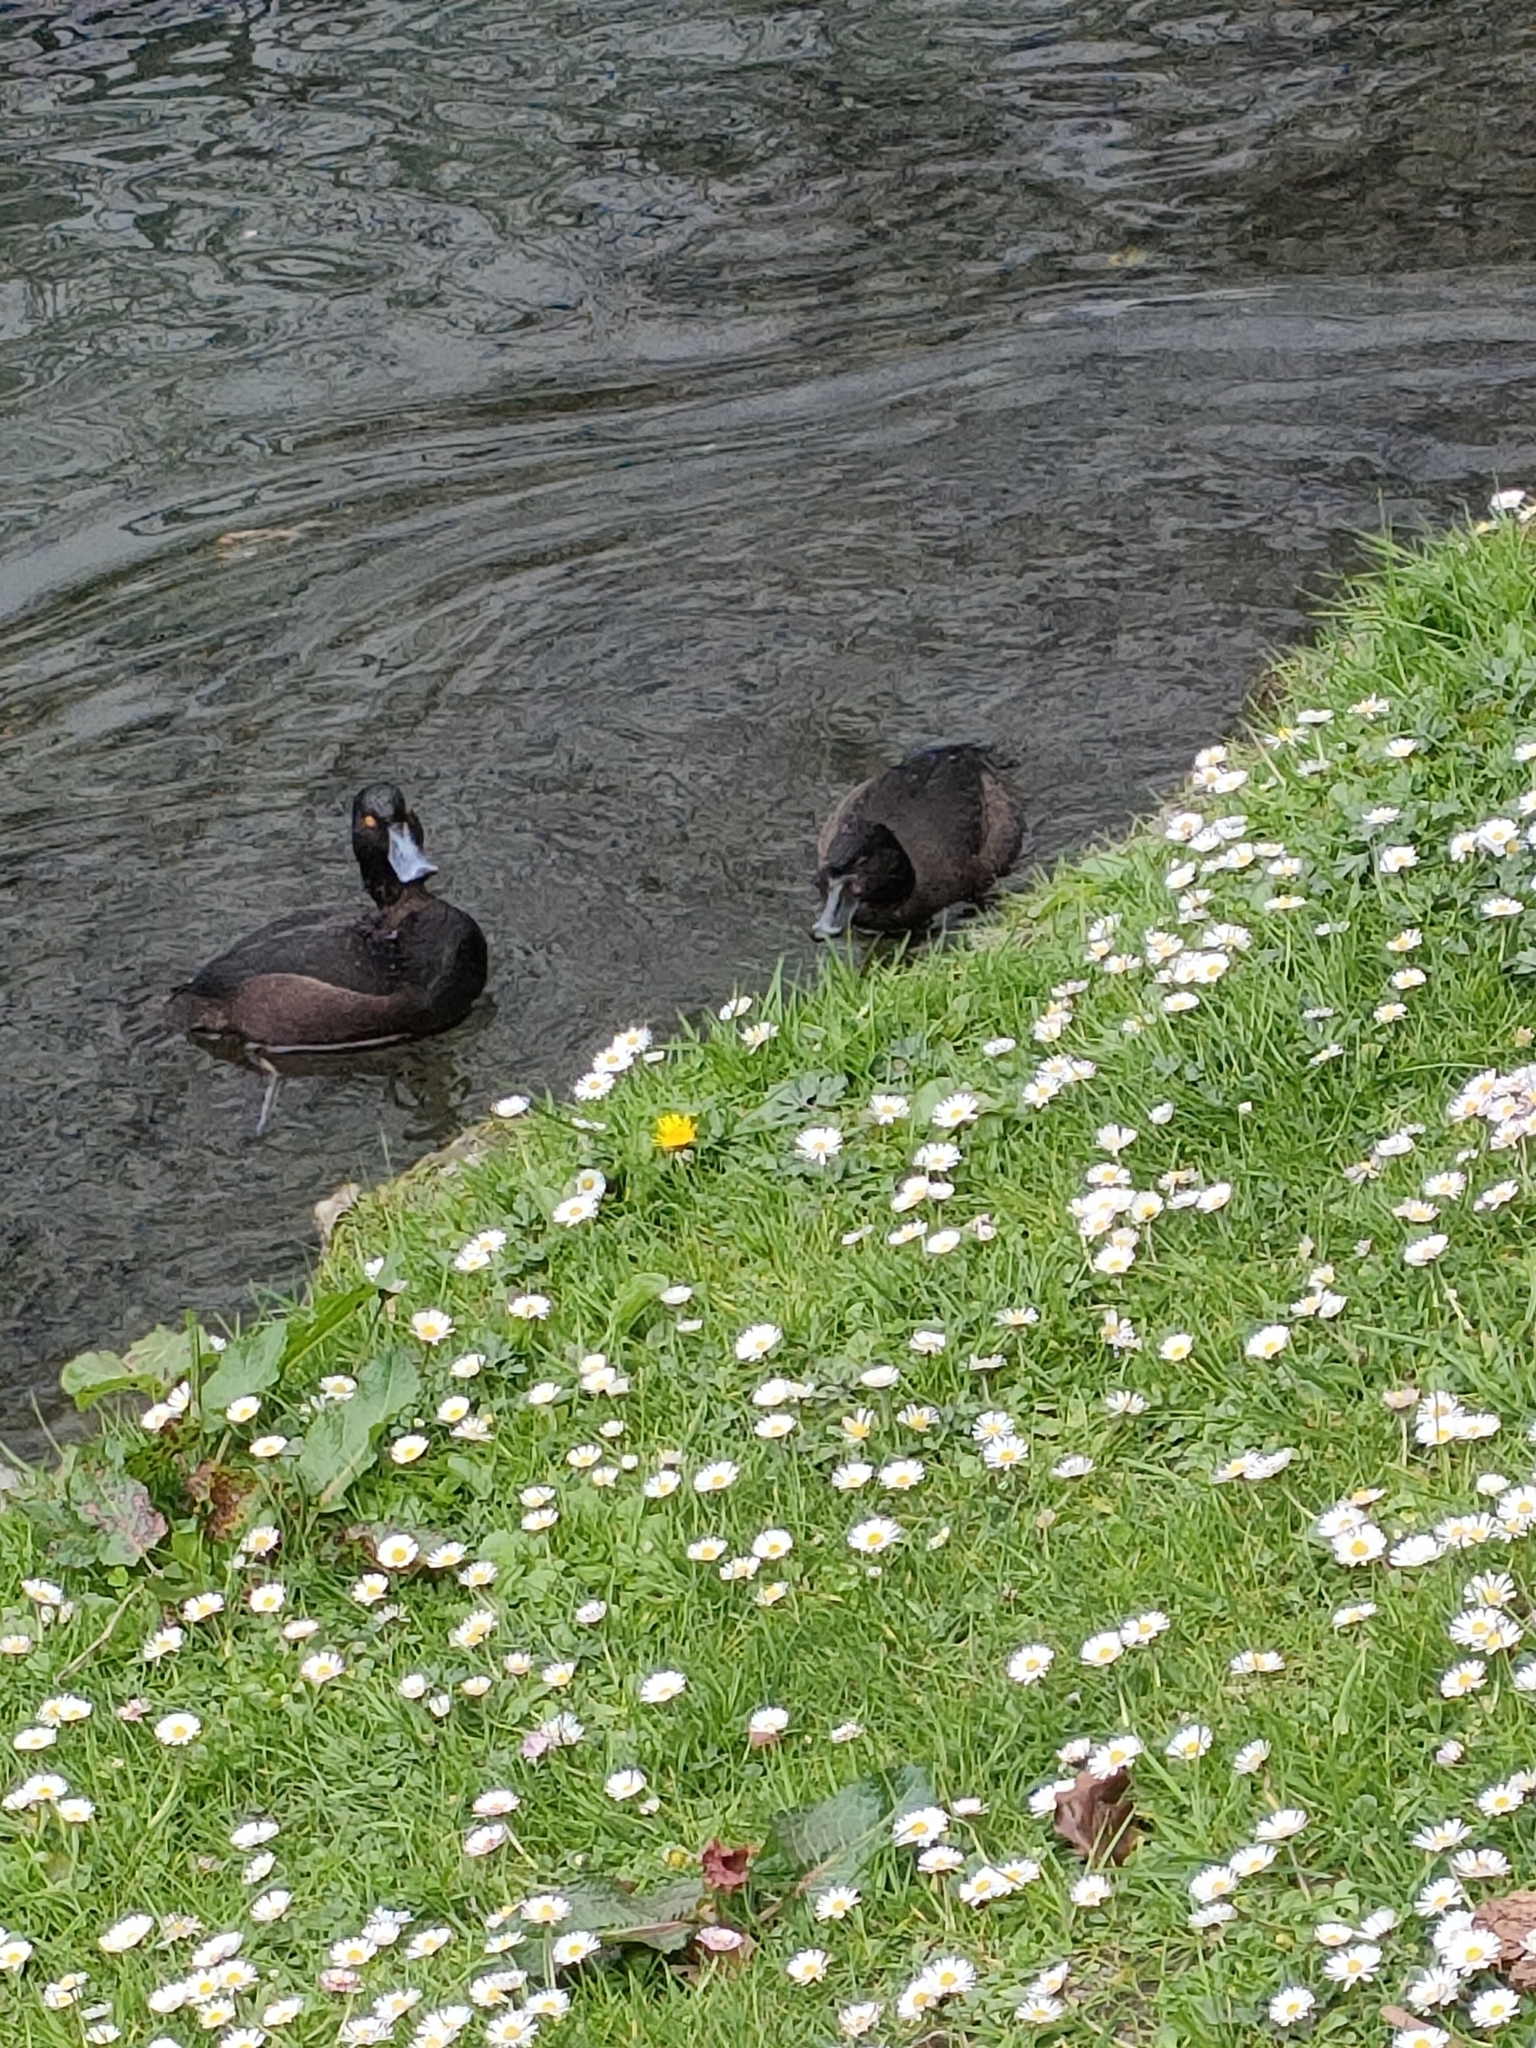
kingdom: Animalia
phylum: Chordata
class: Aves
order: Anseriformes
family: Anatidae
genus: Aythya
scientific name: Aythya novaeseelandiae
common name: New zealand scaup
